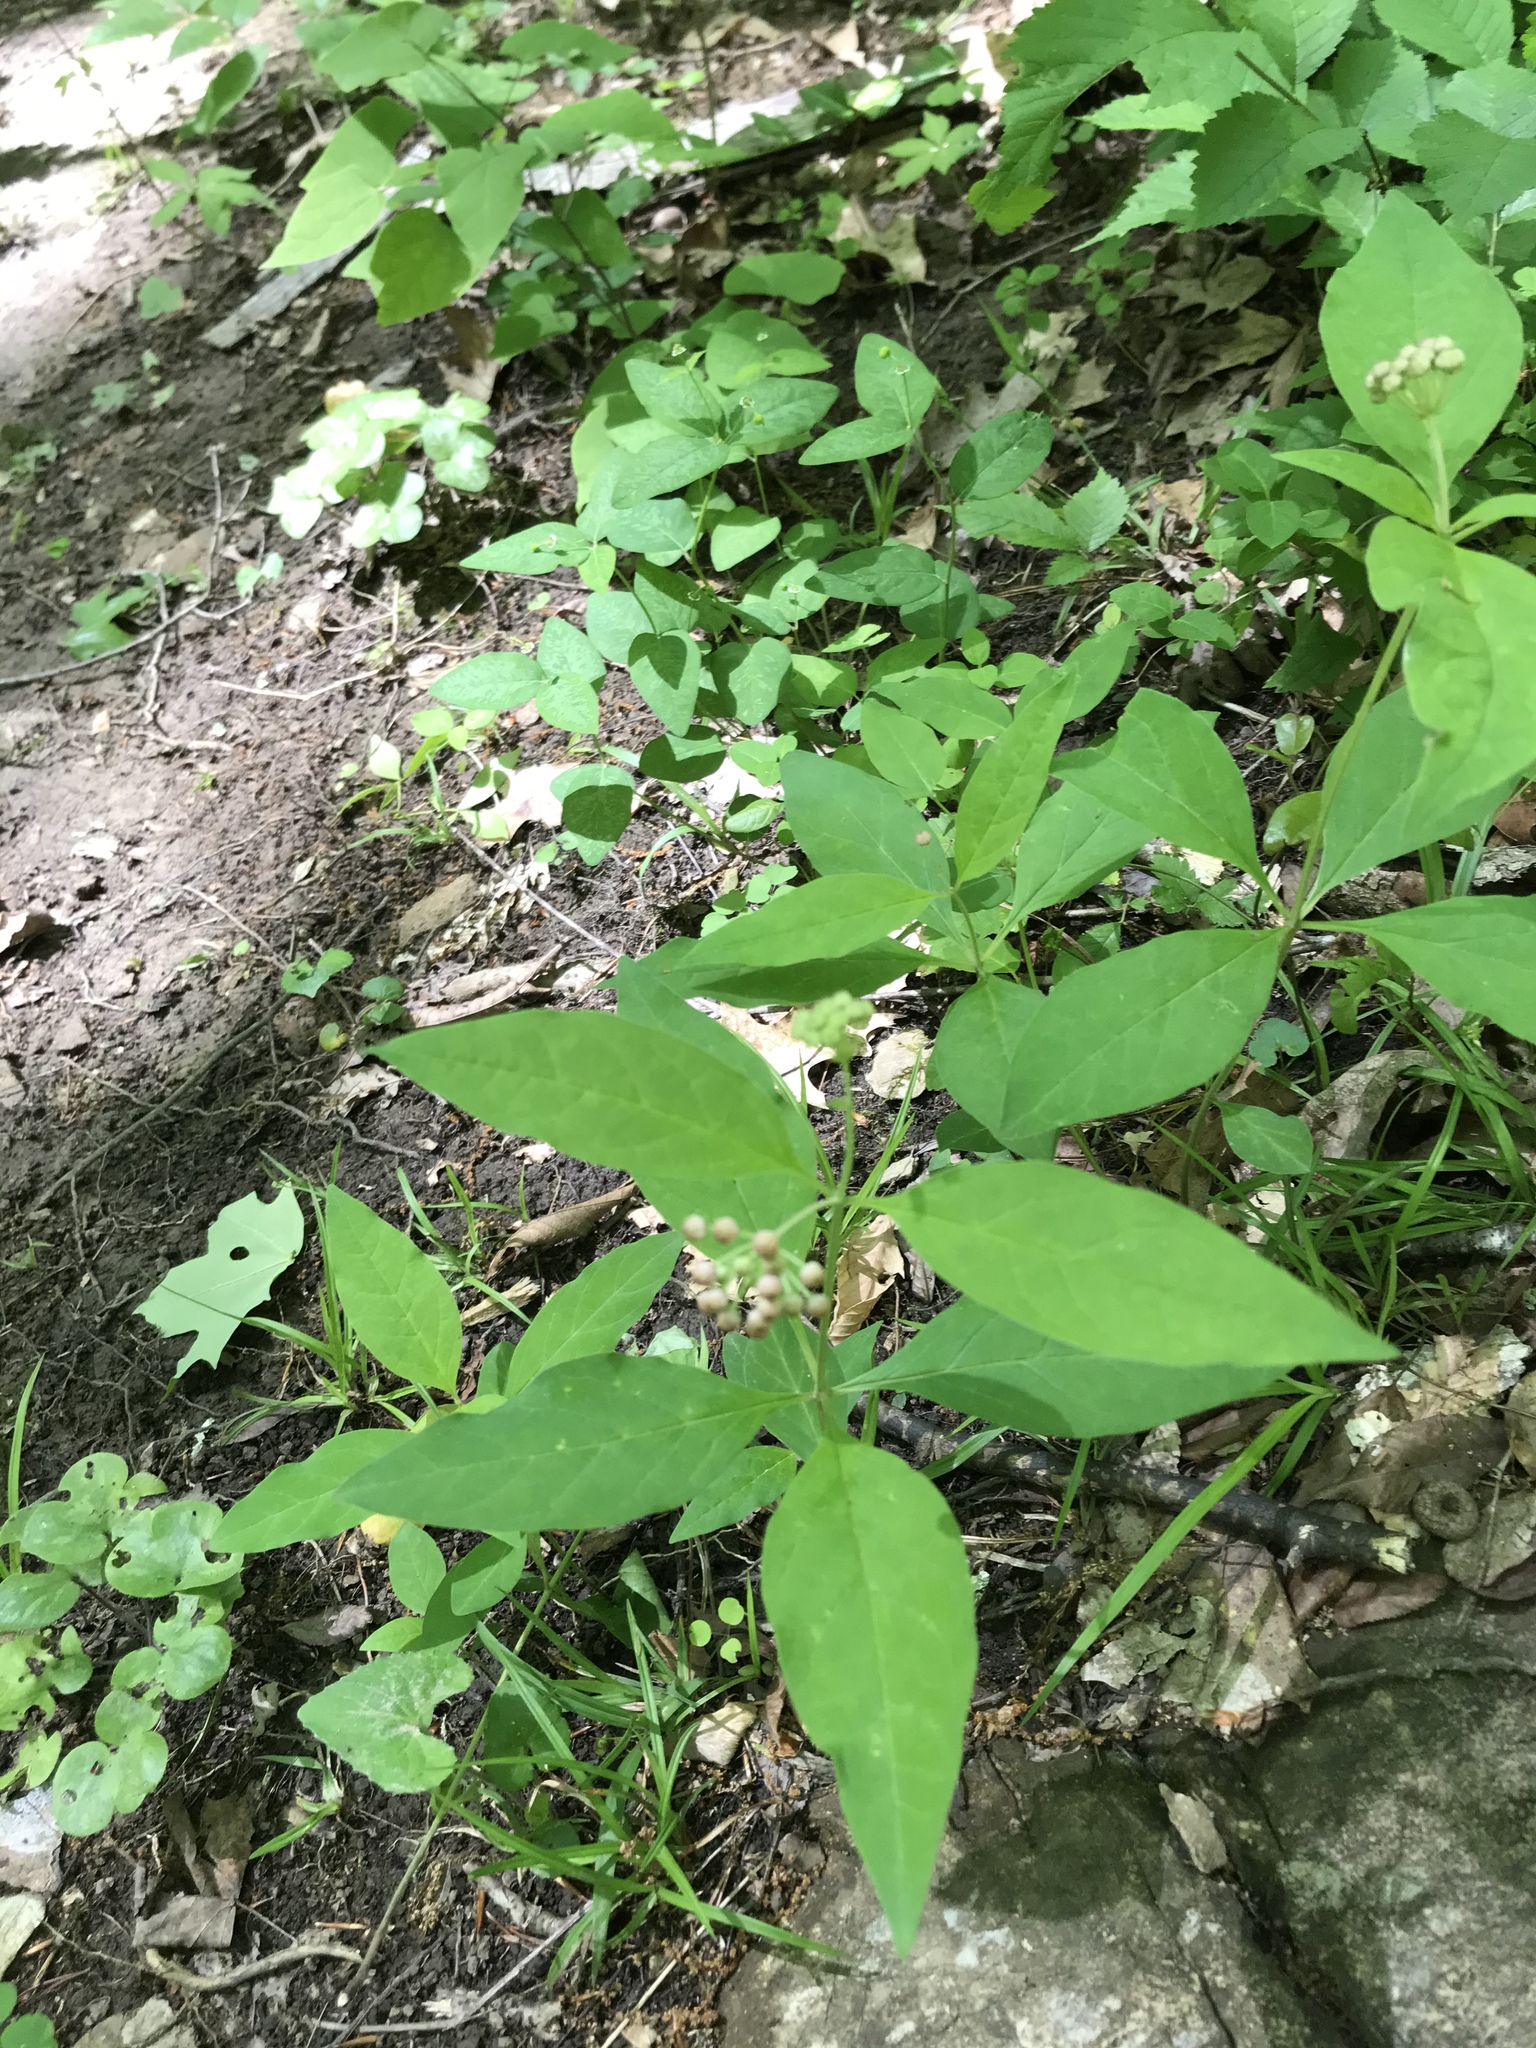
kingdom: Plantae
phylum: Tracheophyta
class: Magnoliopsida
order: Gentianales
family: Apocynaceae
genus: Asclepias
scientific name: Asclepias quadrifolia
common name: Whorled milkweed
